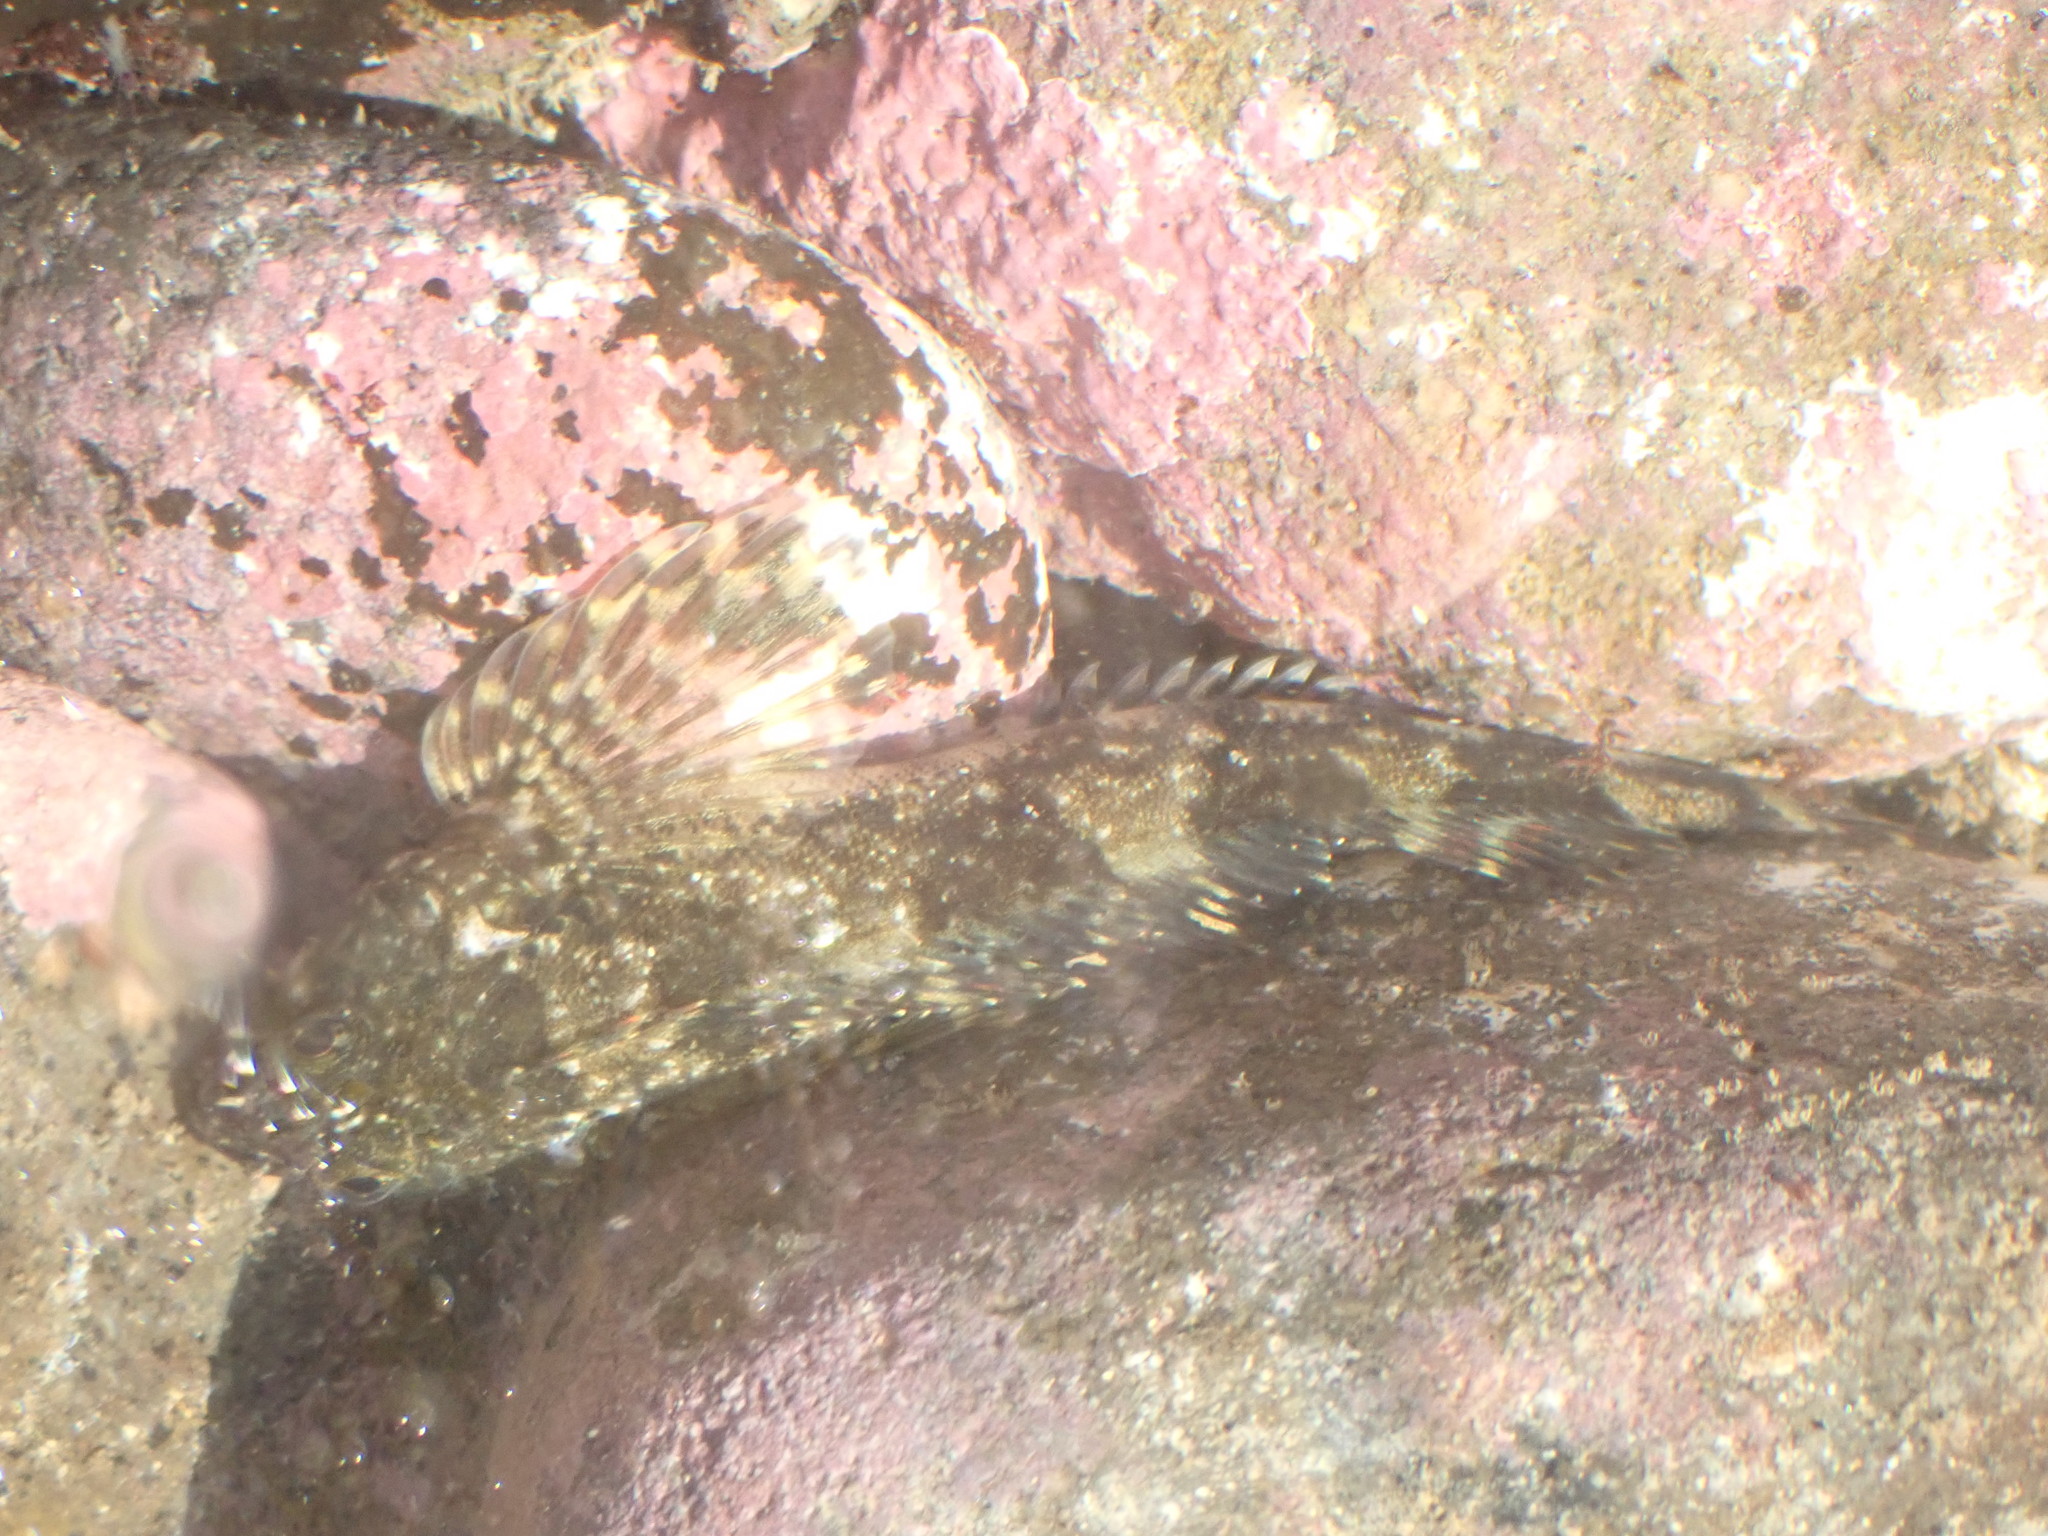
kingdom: Animalia
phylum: Chordata
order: Perciformes
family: Tripterygiidae
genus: Blennodon
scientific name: Blennodon dorsalis
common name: Giant triplefin
